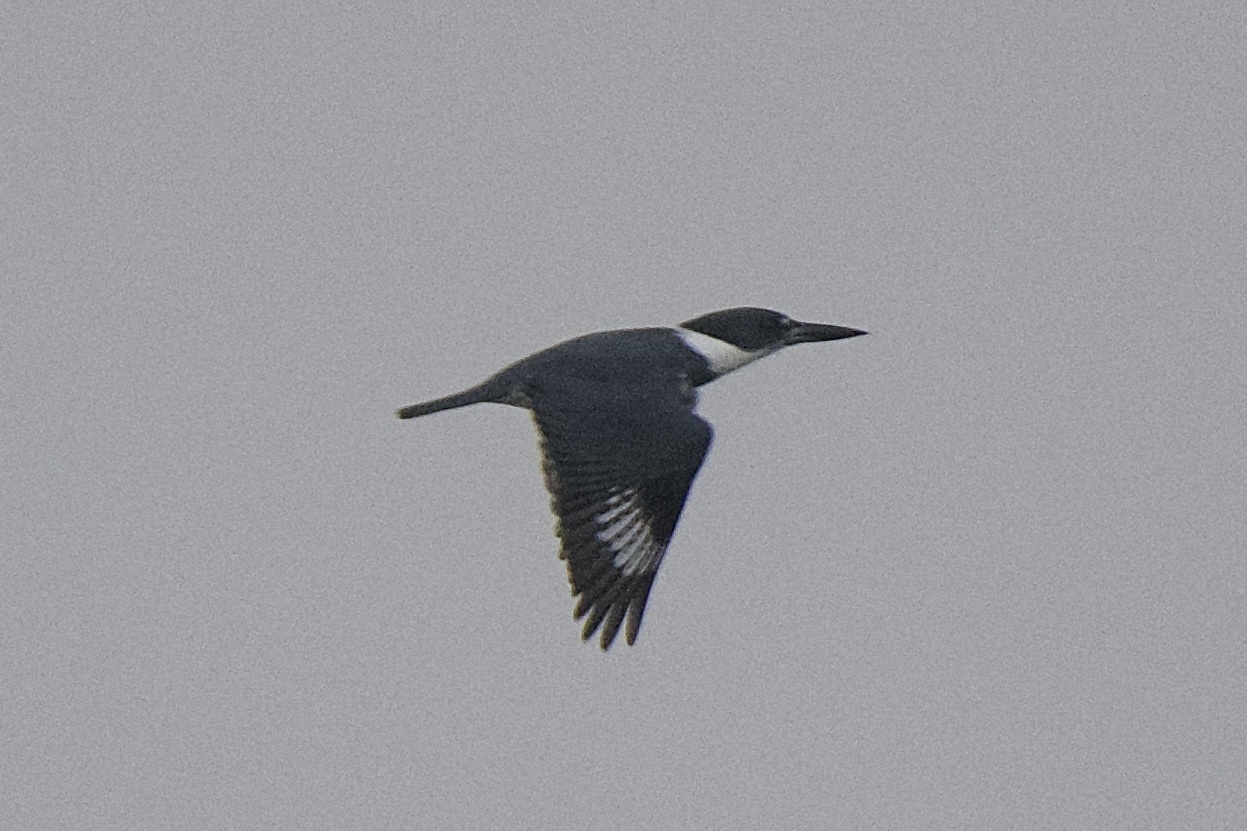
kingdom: Animalia
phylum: Chordata
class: Aves
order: Coraciiformes
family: Alcedinidae
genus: Megaceryle
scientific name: Megaceryle torquata
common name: Ringed kingfisher
